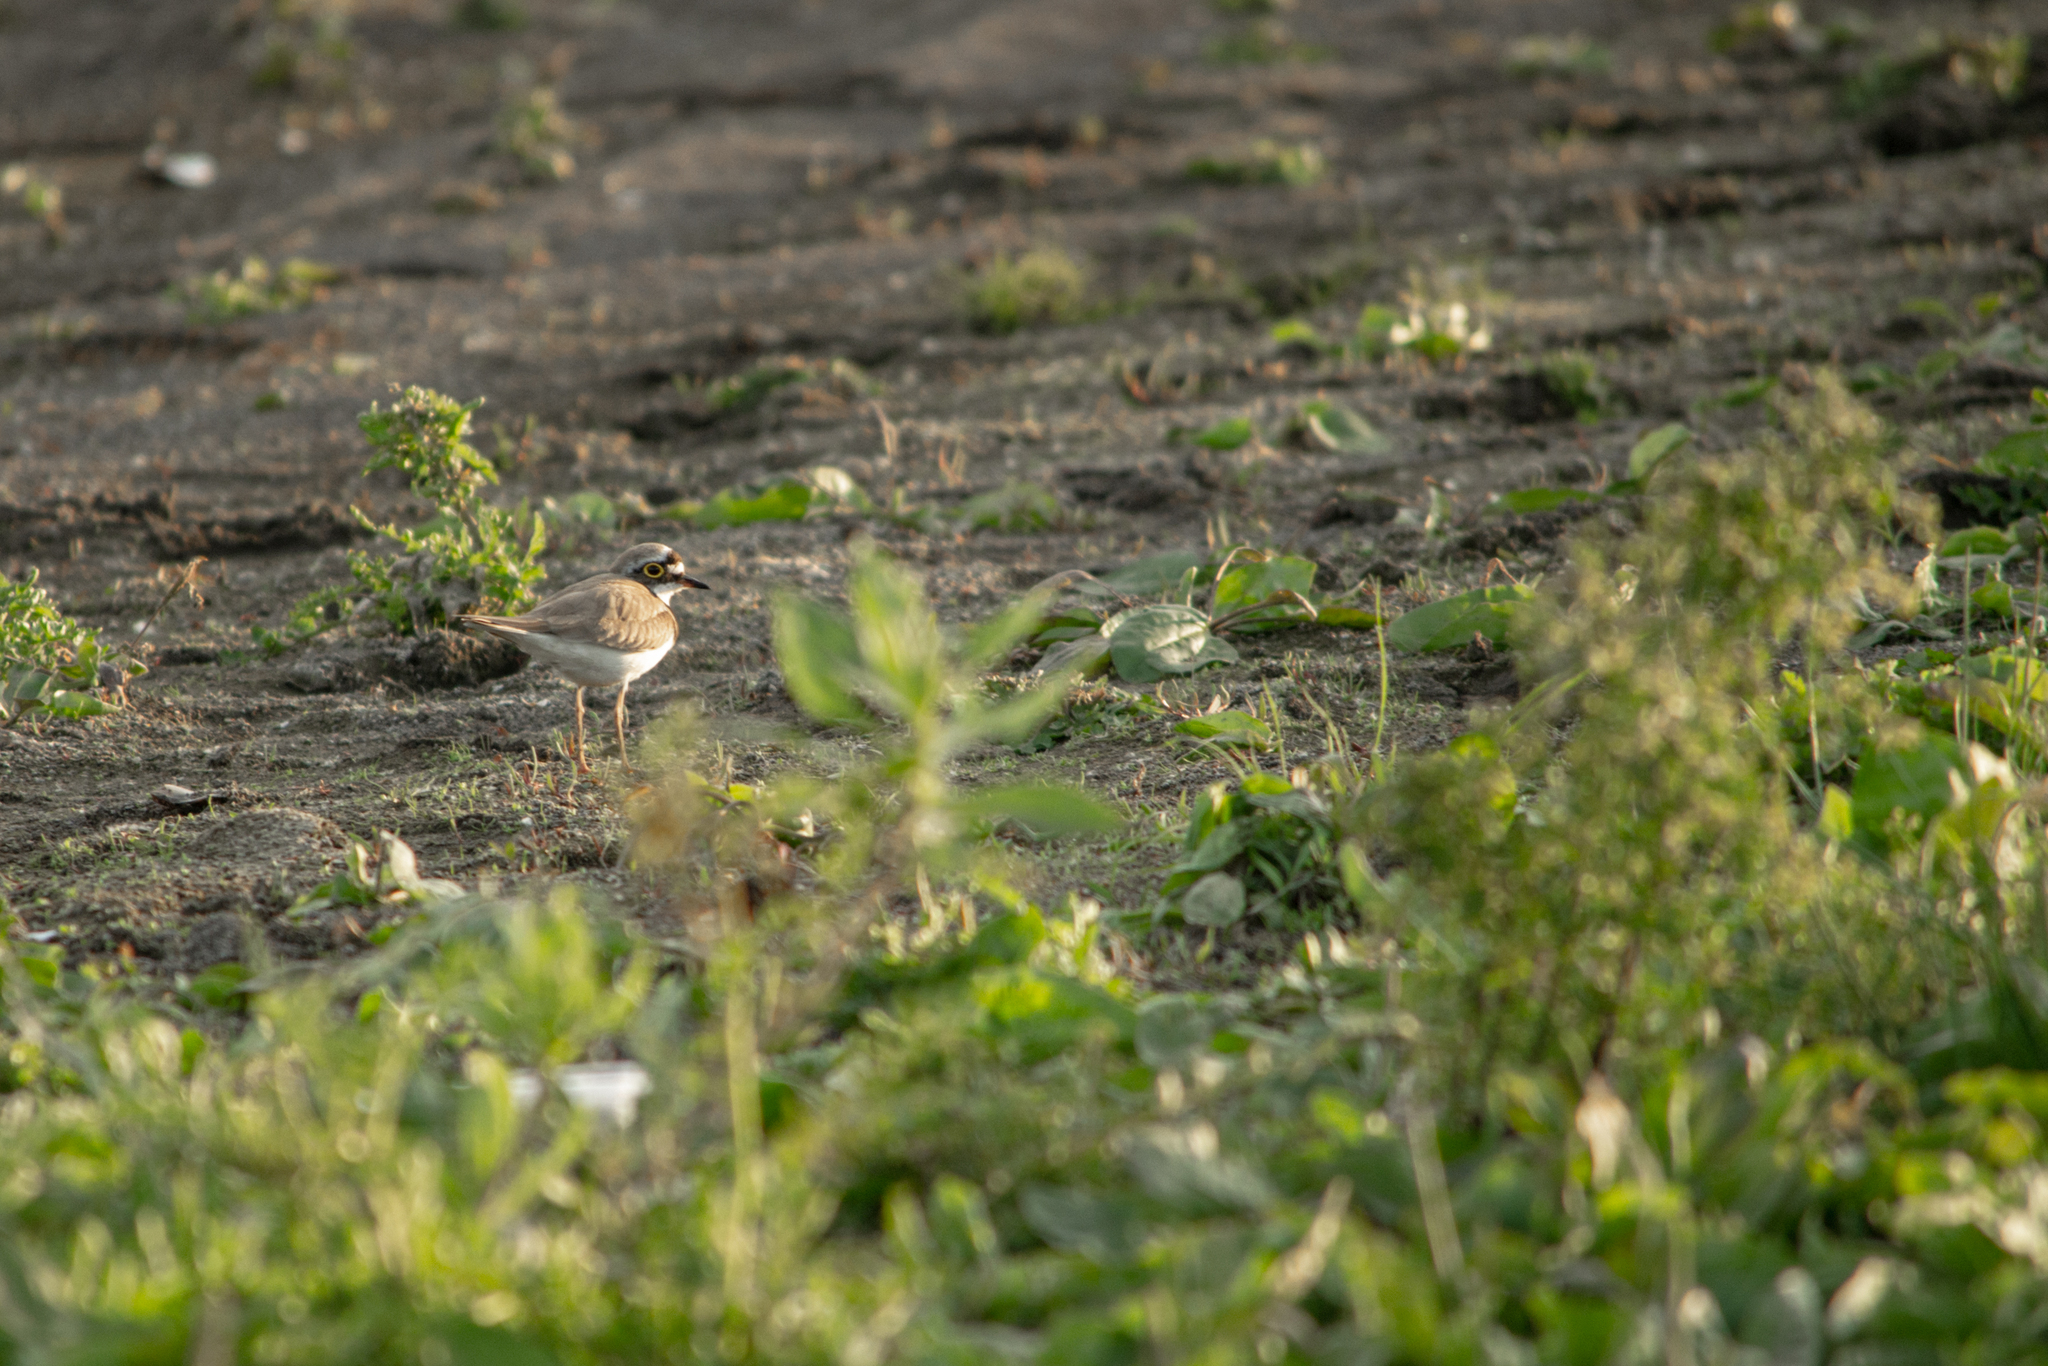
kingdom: Animalia
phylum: Chordata
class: Aves
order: Charadriiformes
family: Charadriidae
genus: Charadrius
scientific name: Charadrius dubius
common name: Little ringed plover
